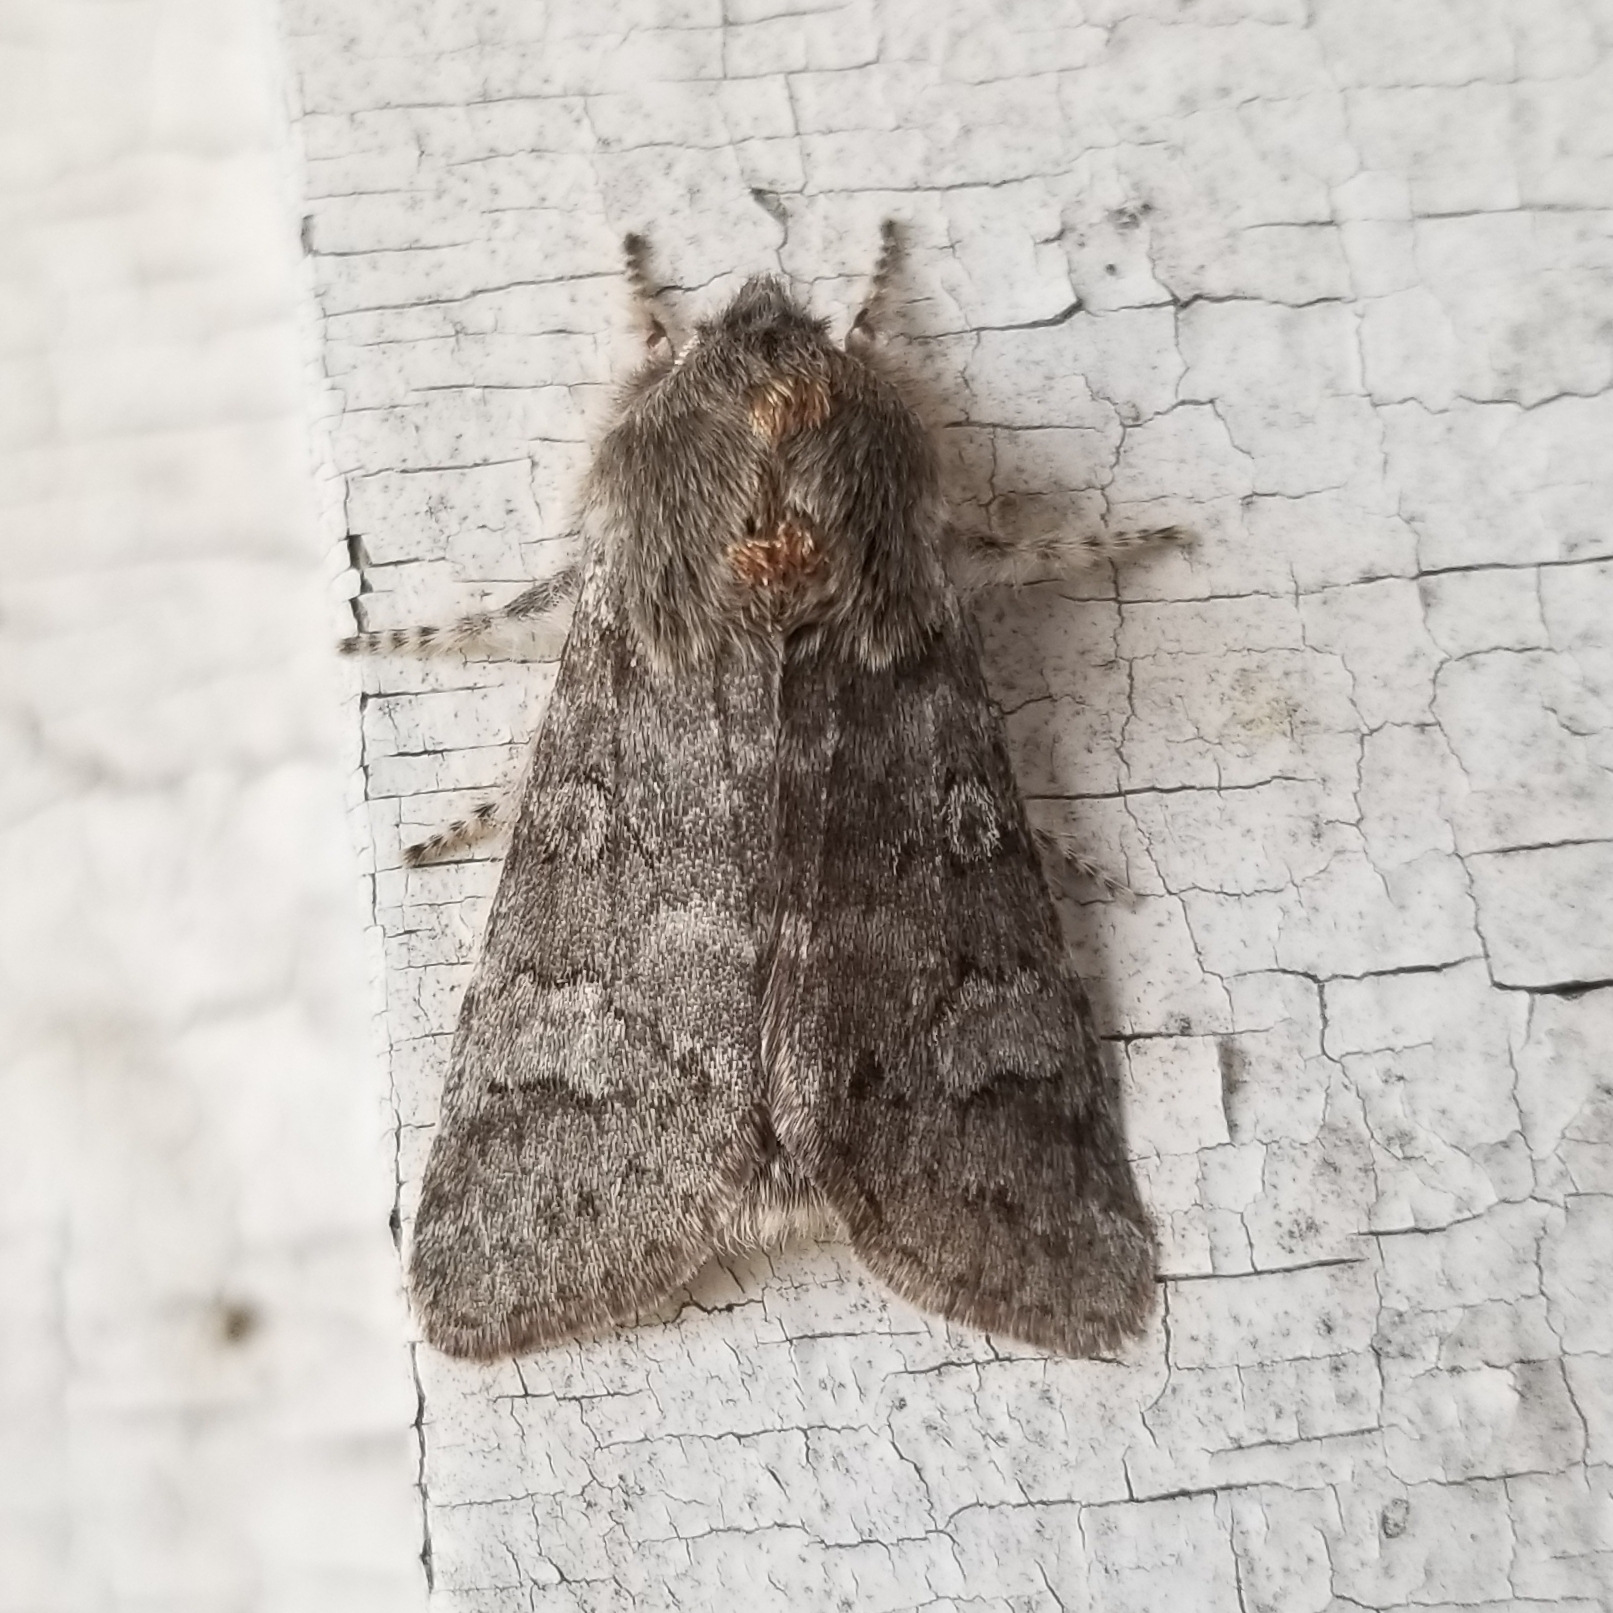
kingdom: Animalia
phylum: Arthropoda
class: Insecta
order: Lepidoptera
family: Noctuidae
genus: Psaphida
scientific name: Psaphida rolandi
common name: Roland's sallow
